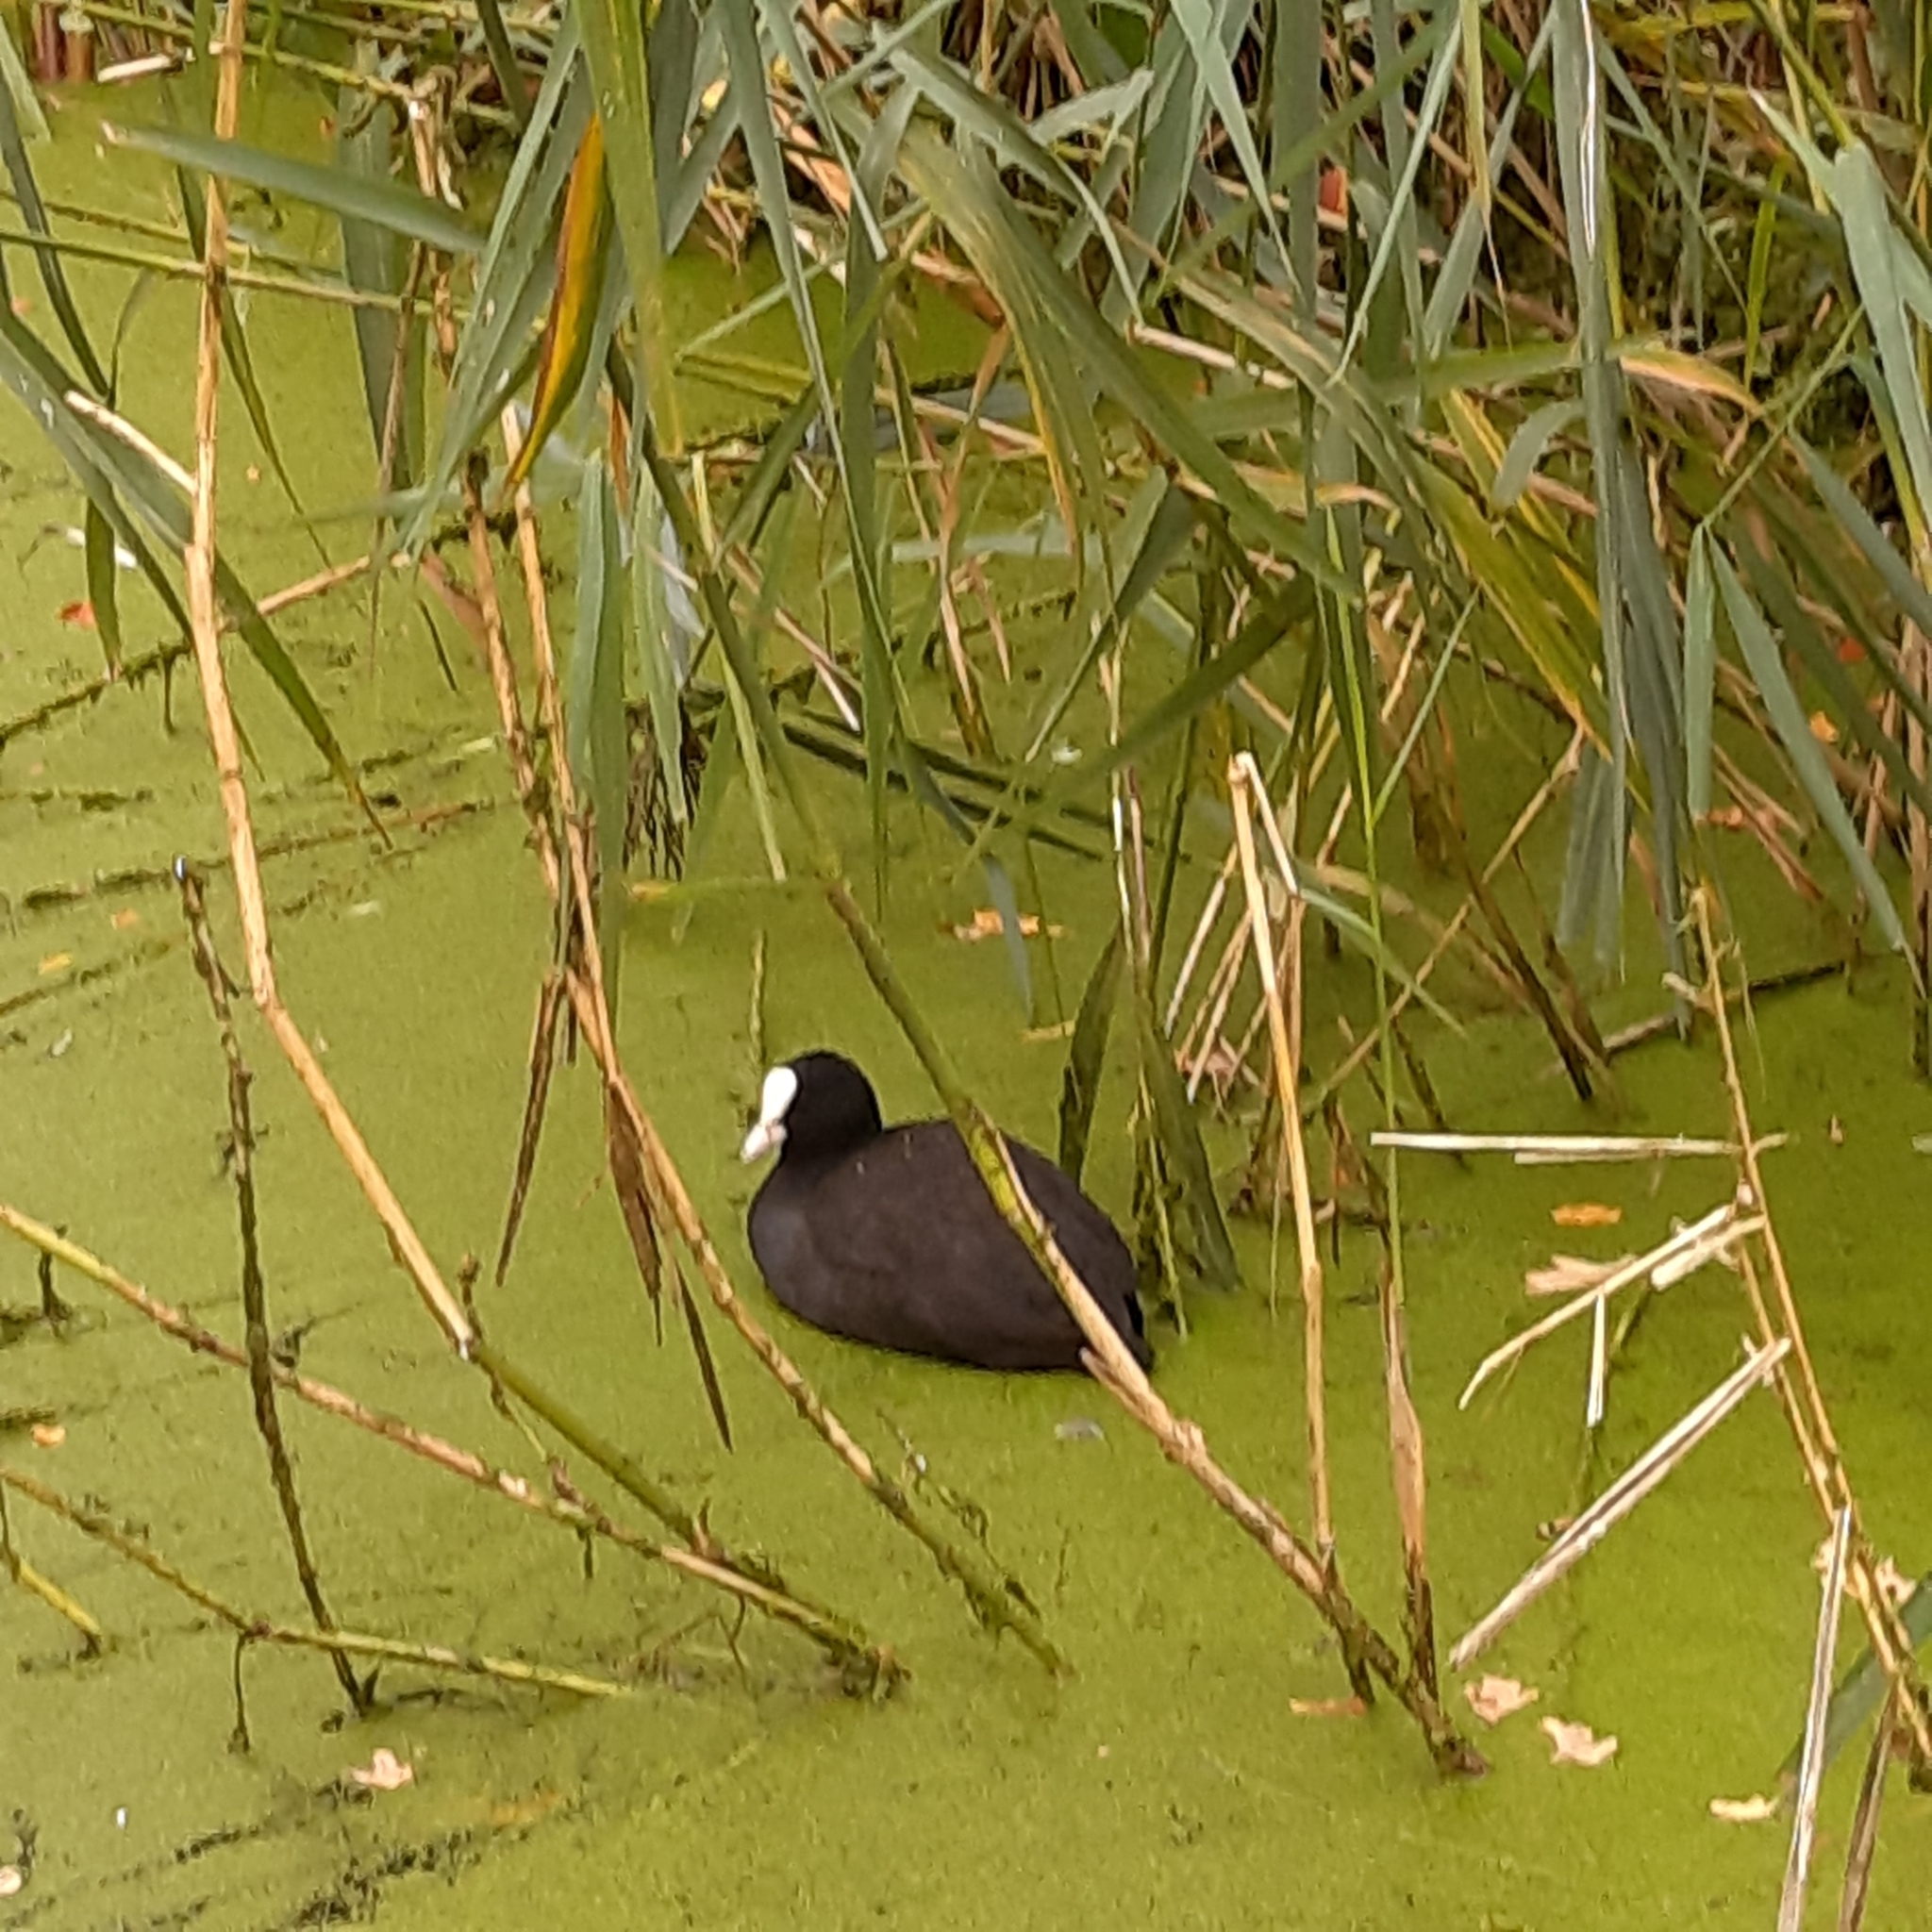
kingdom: Animalia
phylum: Chordata
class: Aves
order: Gruiformes
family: Rallidae
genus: Fulica
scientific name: Fulica atra
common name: Eurasian coot
